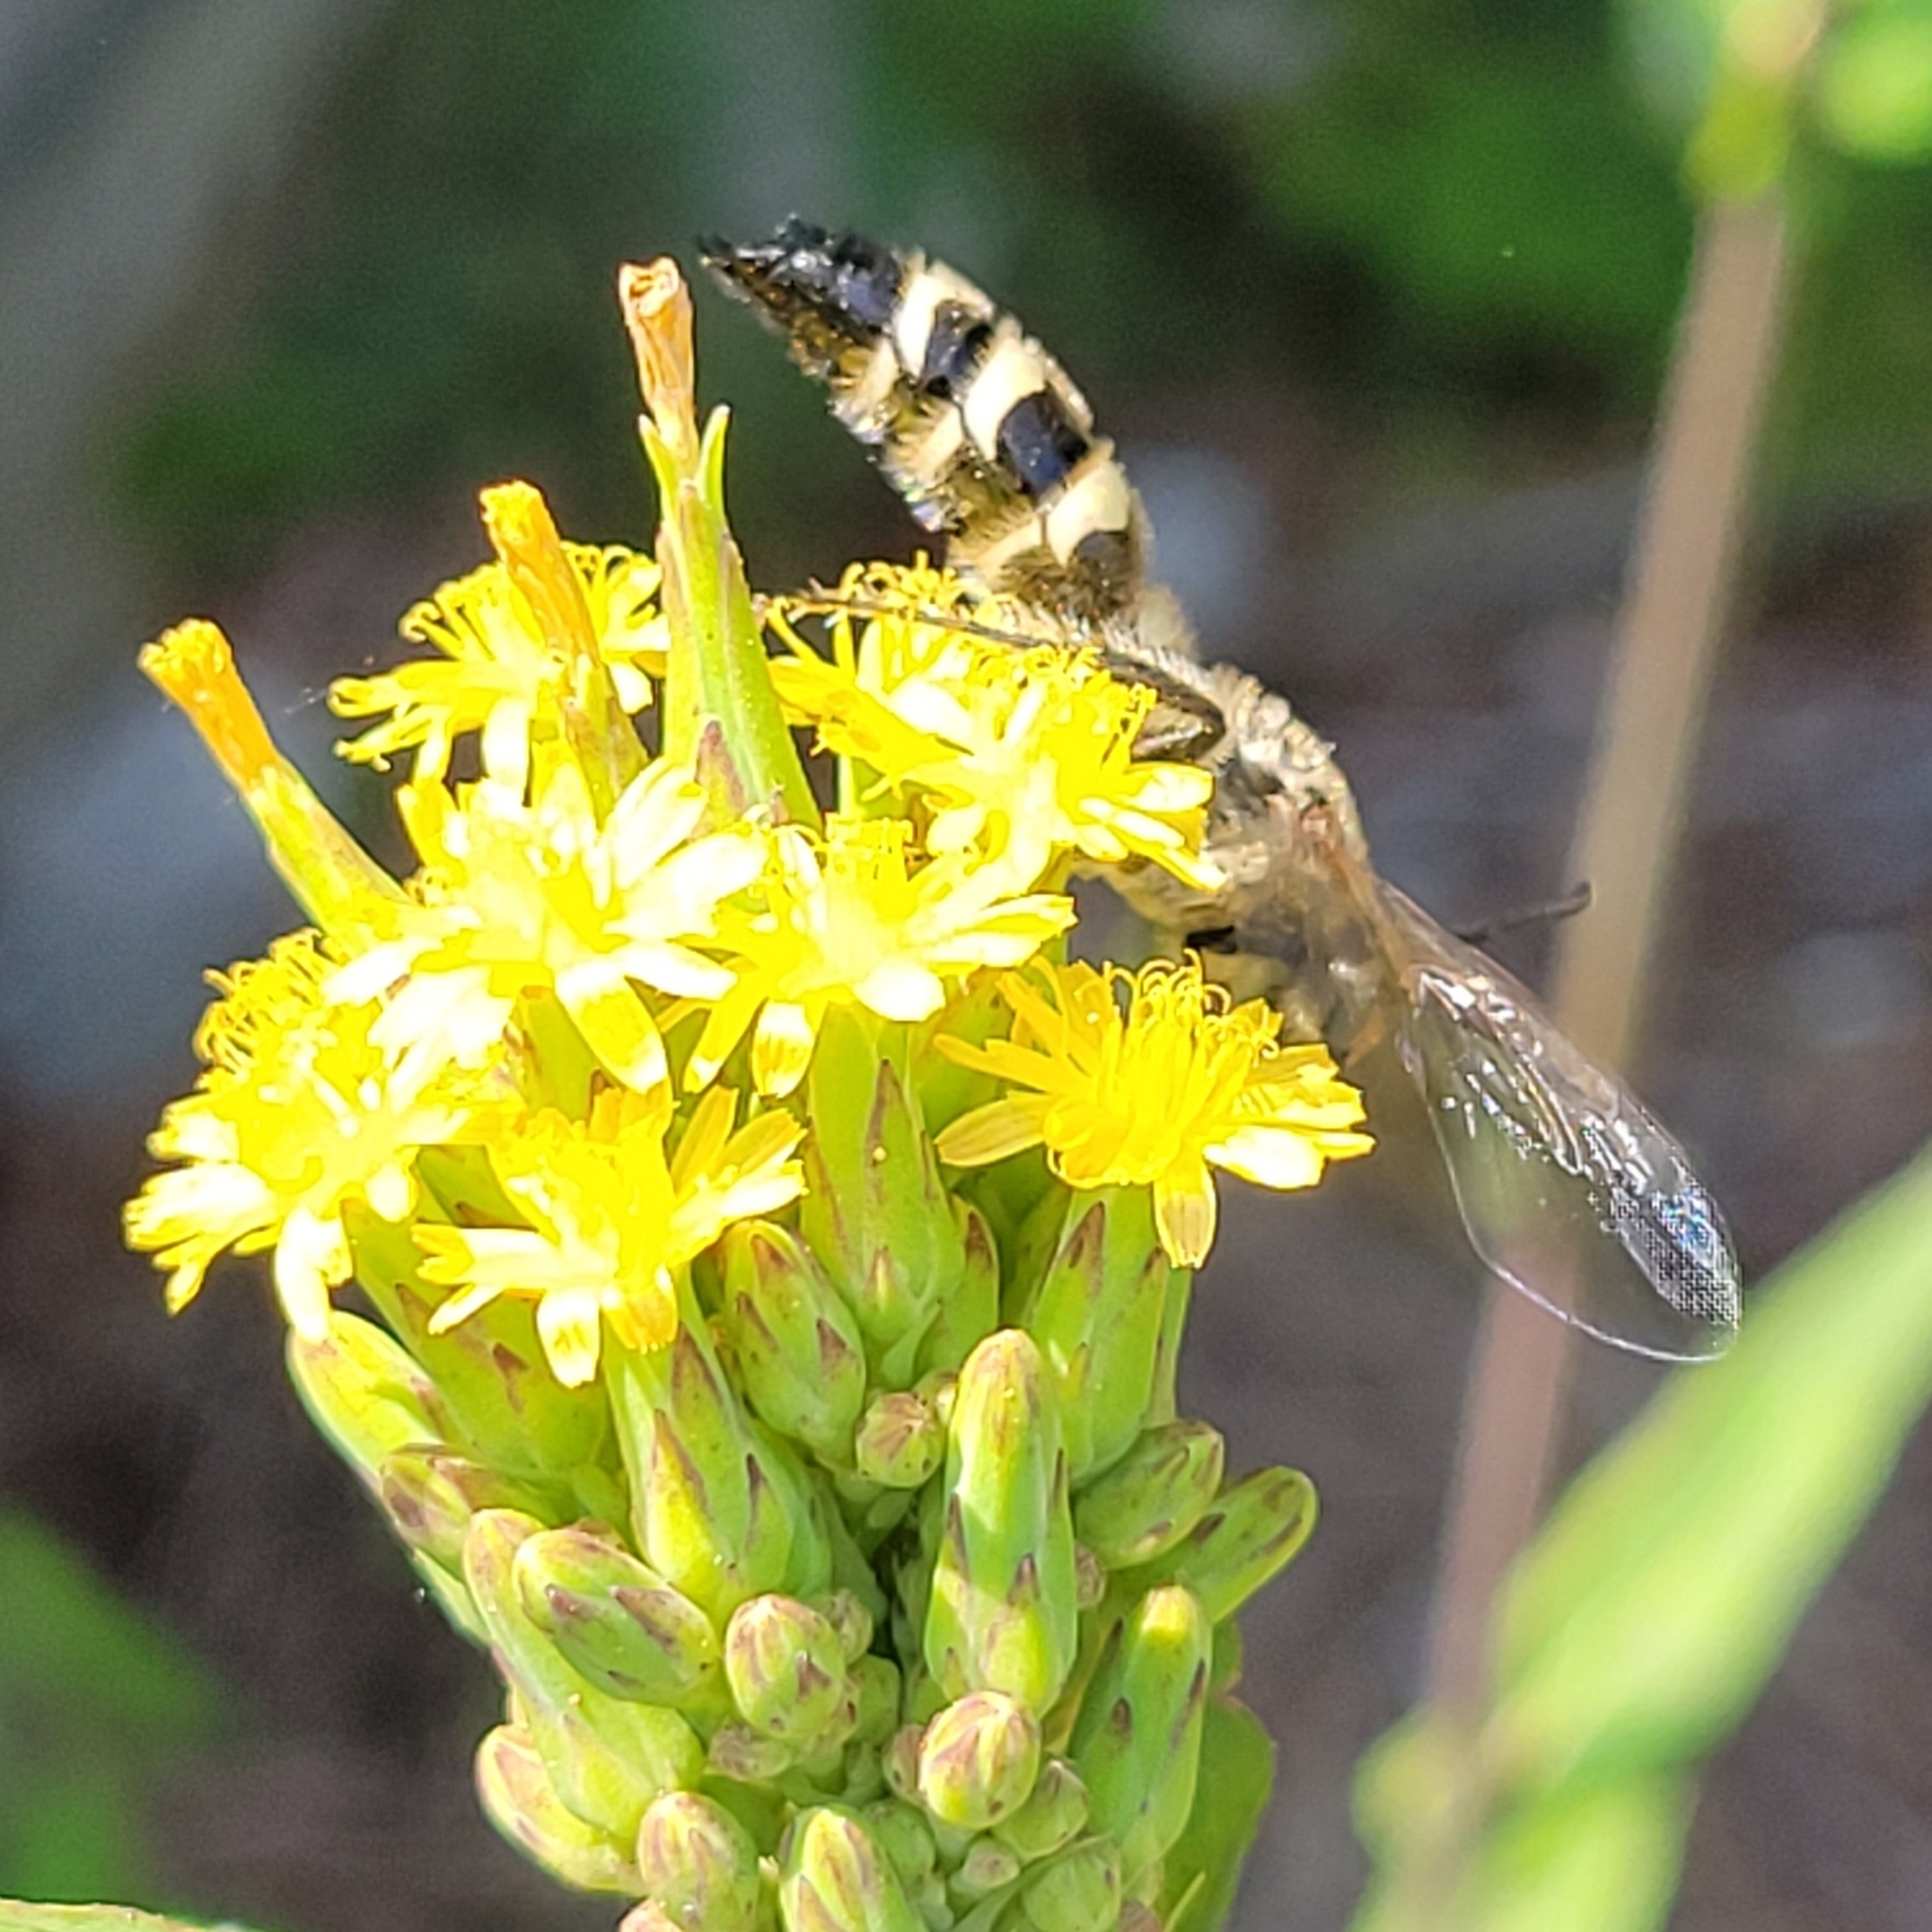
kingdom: Animalia
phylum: Arthropoda
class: Insecta
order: Hymenoptera
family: Scoliidae
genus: Dielis
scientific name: Dielis
